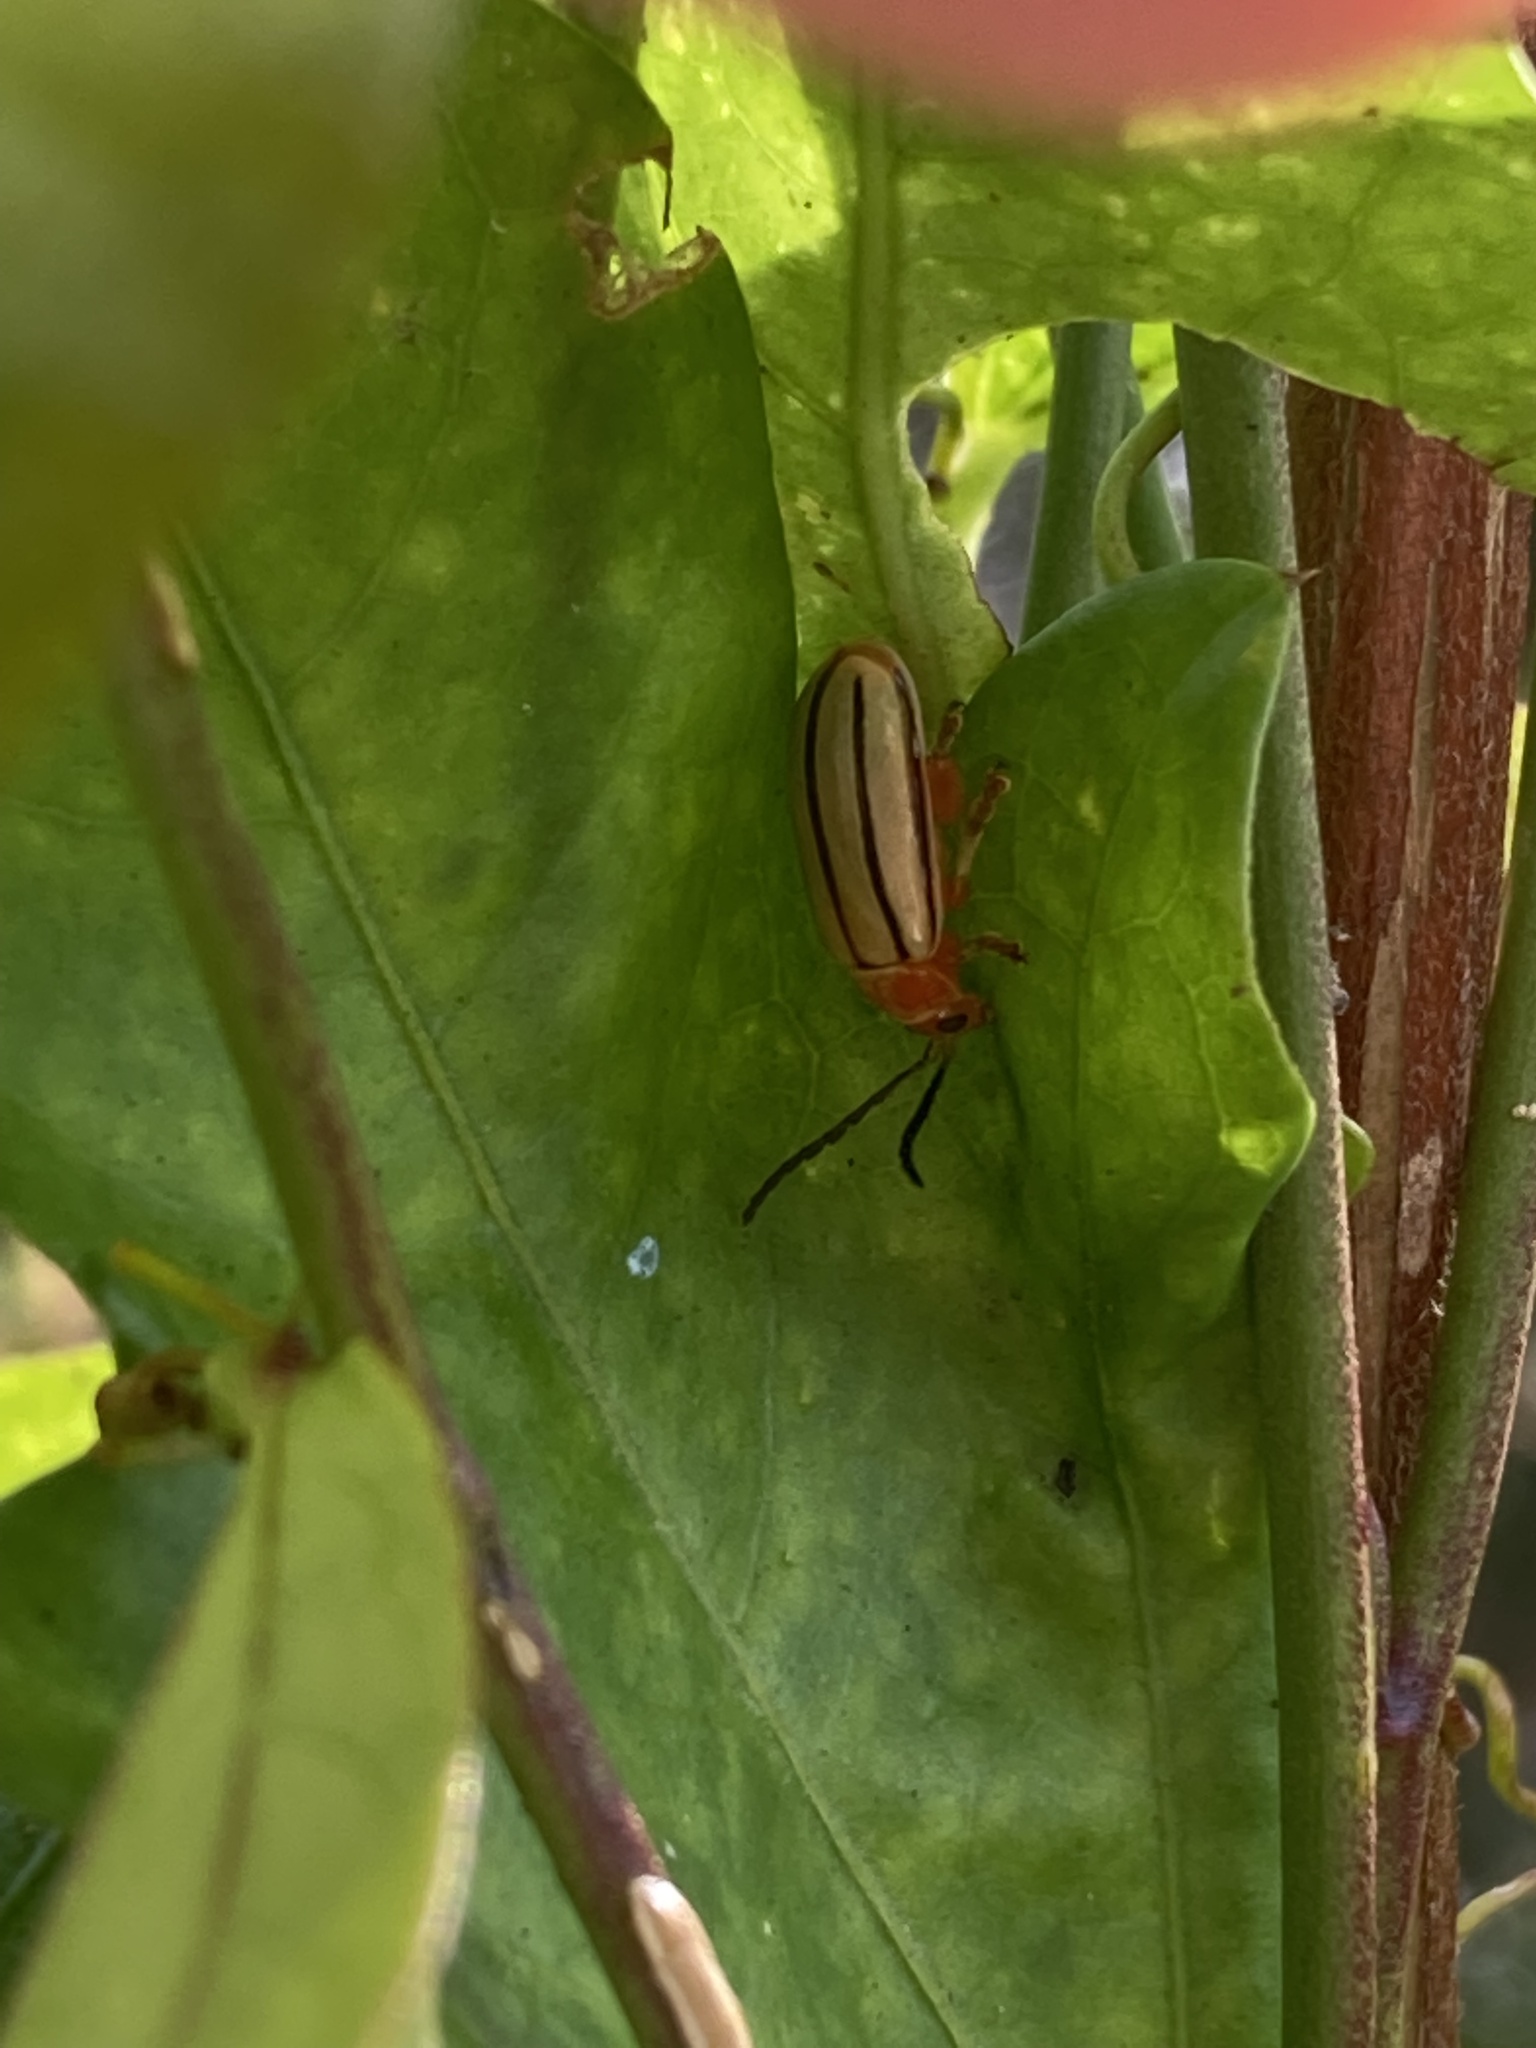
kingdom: Animalia
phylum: Arthropoda
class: Insecta
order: Coleoptera
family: Chrysomelidae
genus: Disonycha
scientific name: Disonycha
